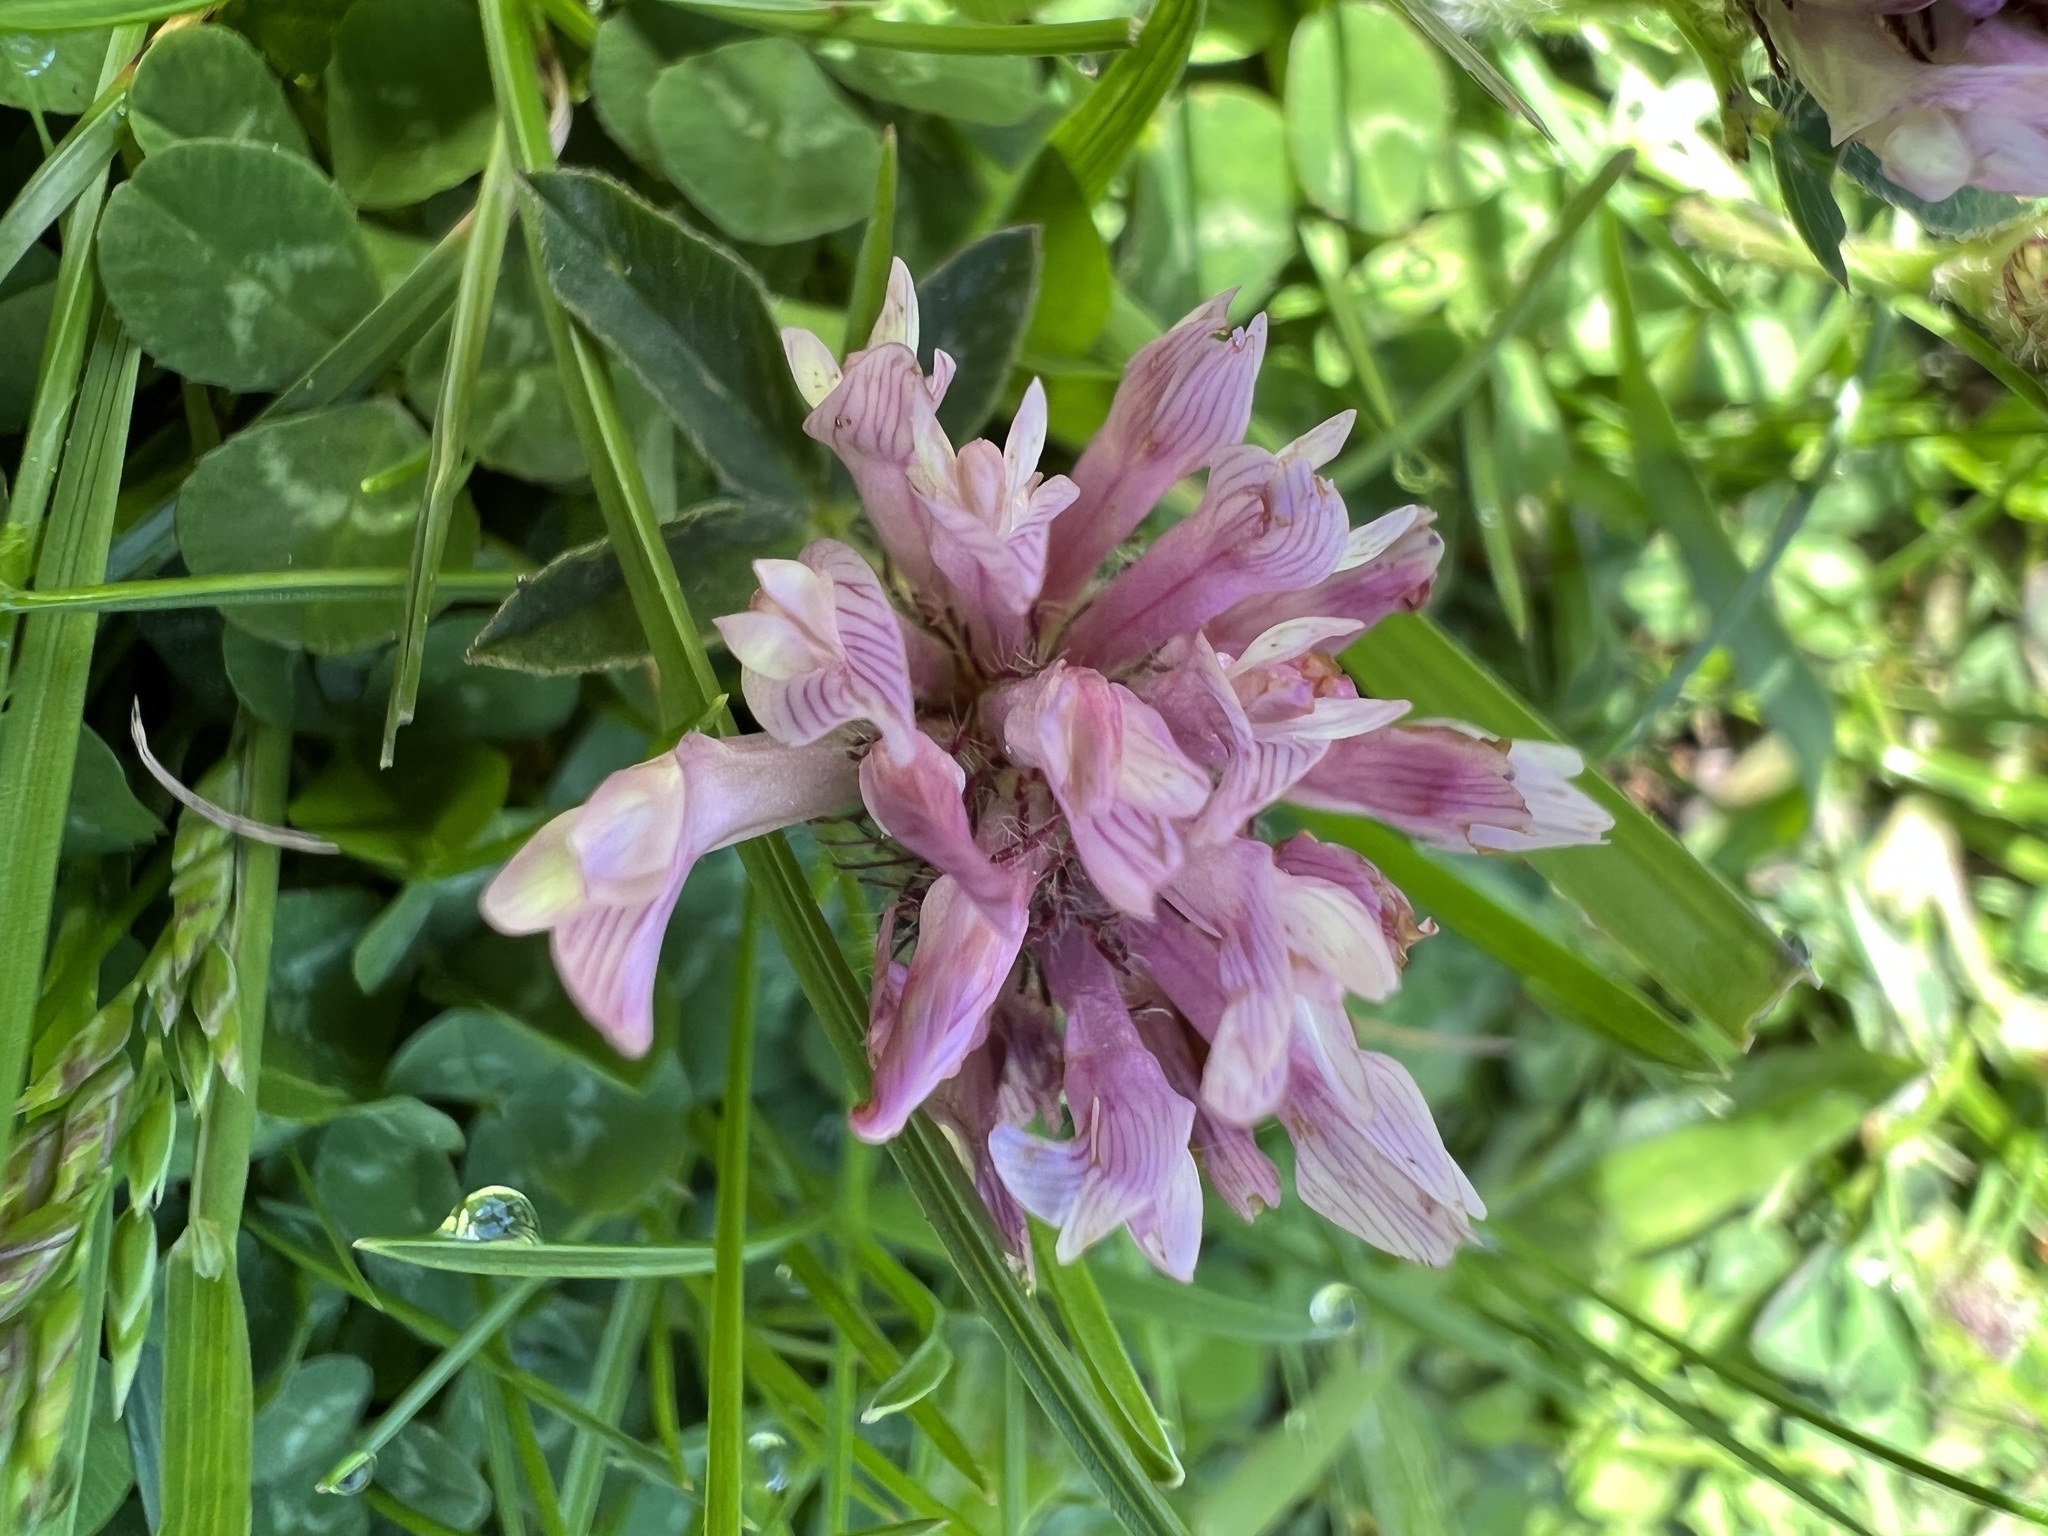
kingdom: Plantae
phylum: Tracheophyta
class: Magnoliopsida
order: Fabales
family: Fabaceae
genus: Trifolium
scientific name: Trifolium pratense
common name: Red clover
